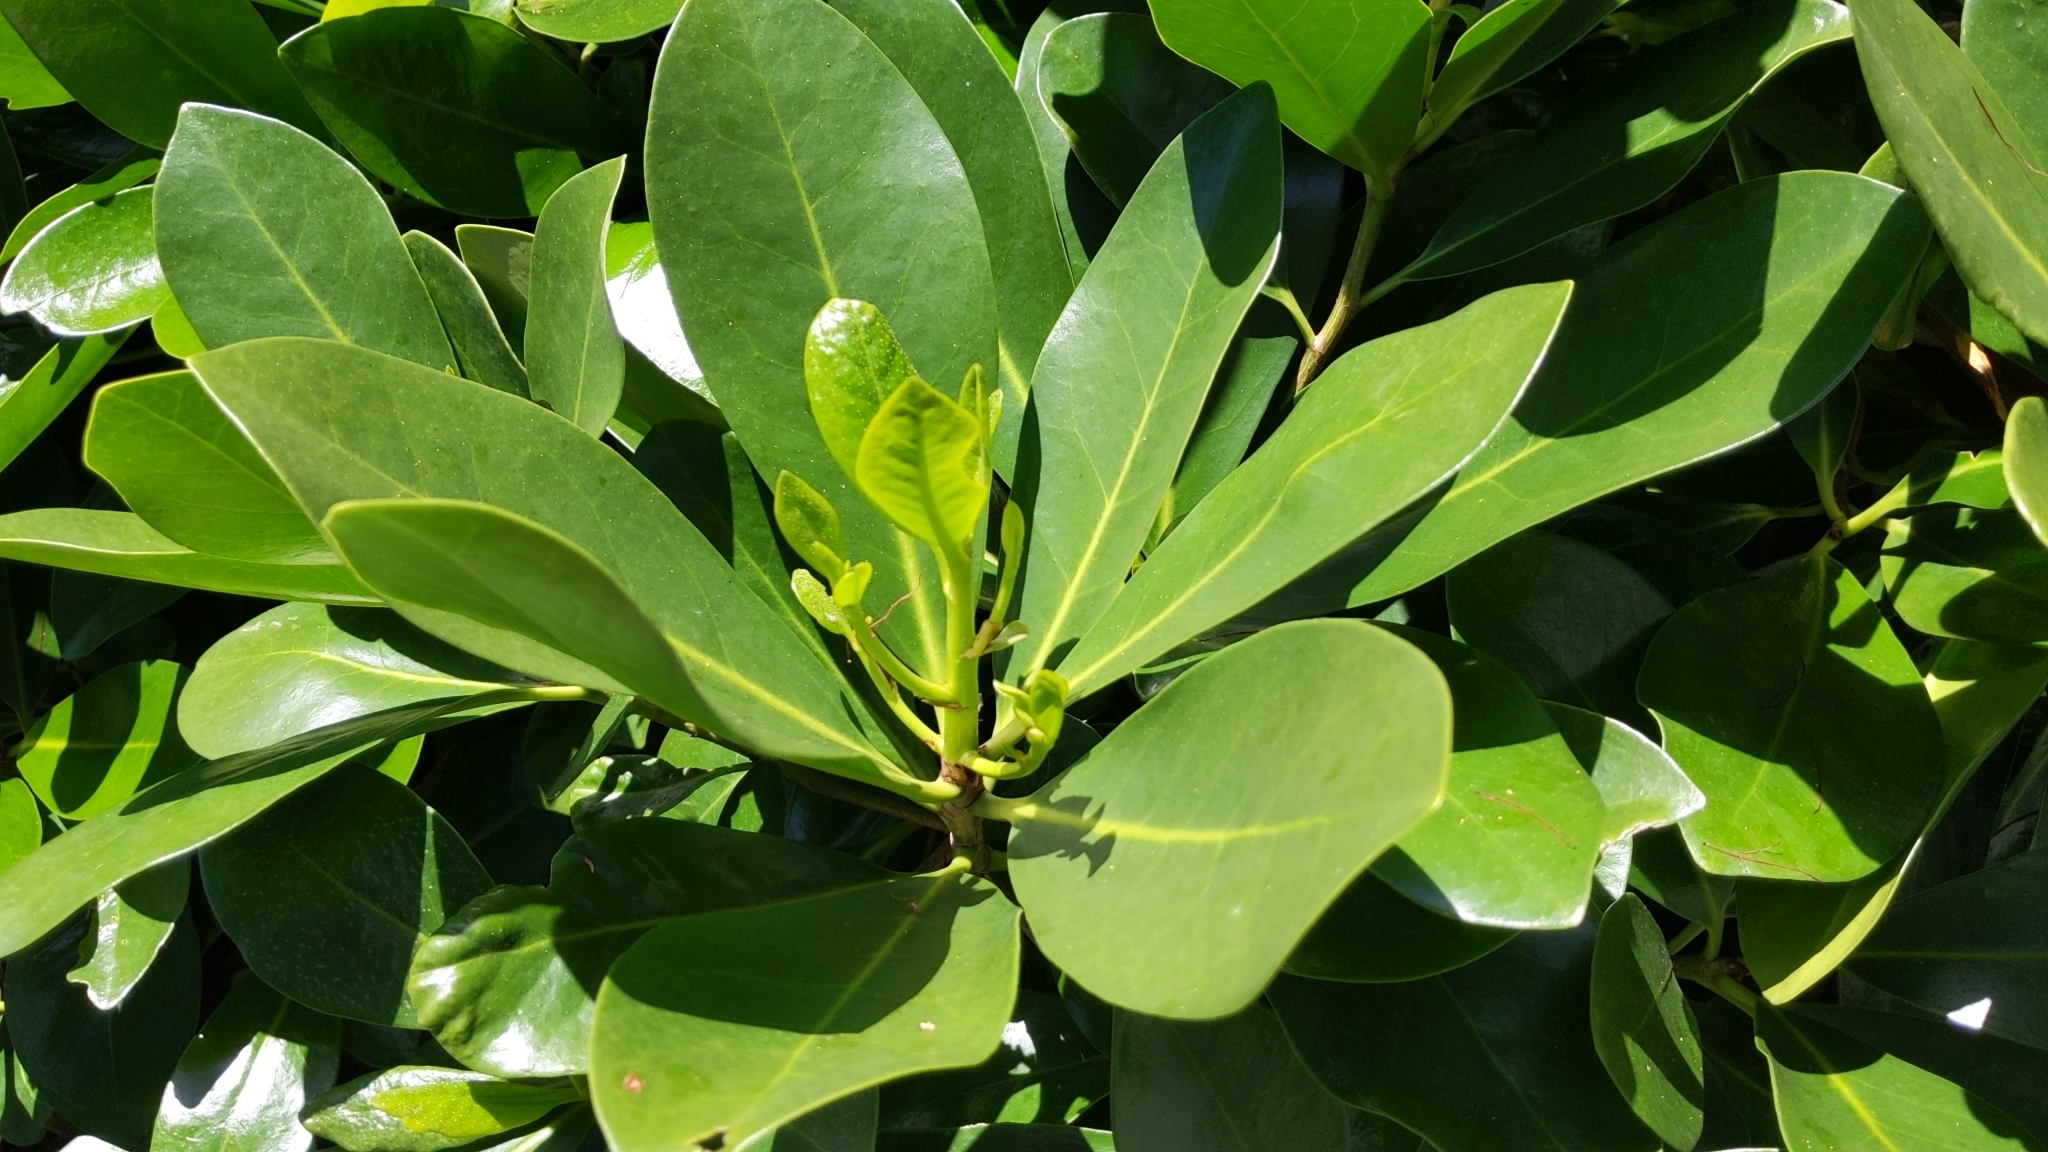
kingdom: Plantae
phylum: Tracheophyta
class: Magnoliopsida
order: Cucurbitales
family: Corynocarpaceae
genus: Corynocarpus
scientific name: Corynocarpus laevigatus
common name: New zealand laurel
